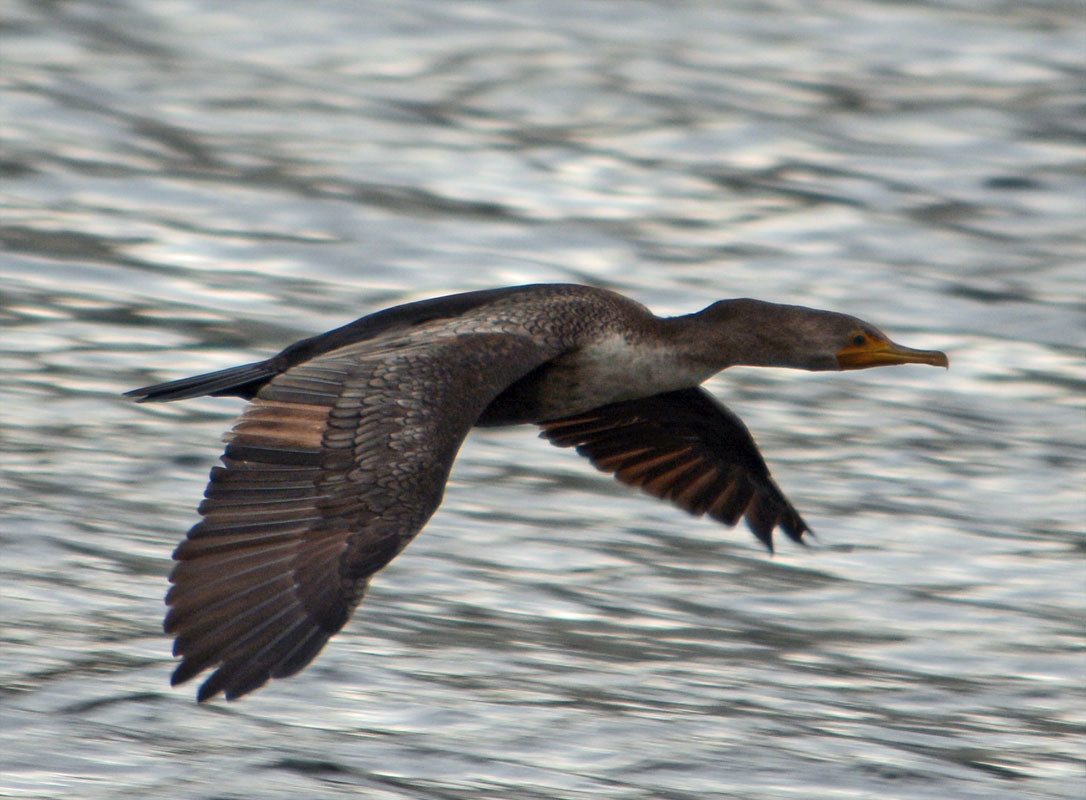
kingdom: Animalia
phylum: Chordata
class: Aves
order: Suliformes
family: Phalacrocoracidae
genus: Phalacrocorax
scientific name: Phalacrocorax auritus
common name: Double-crested cormorant
